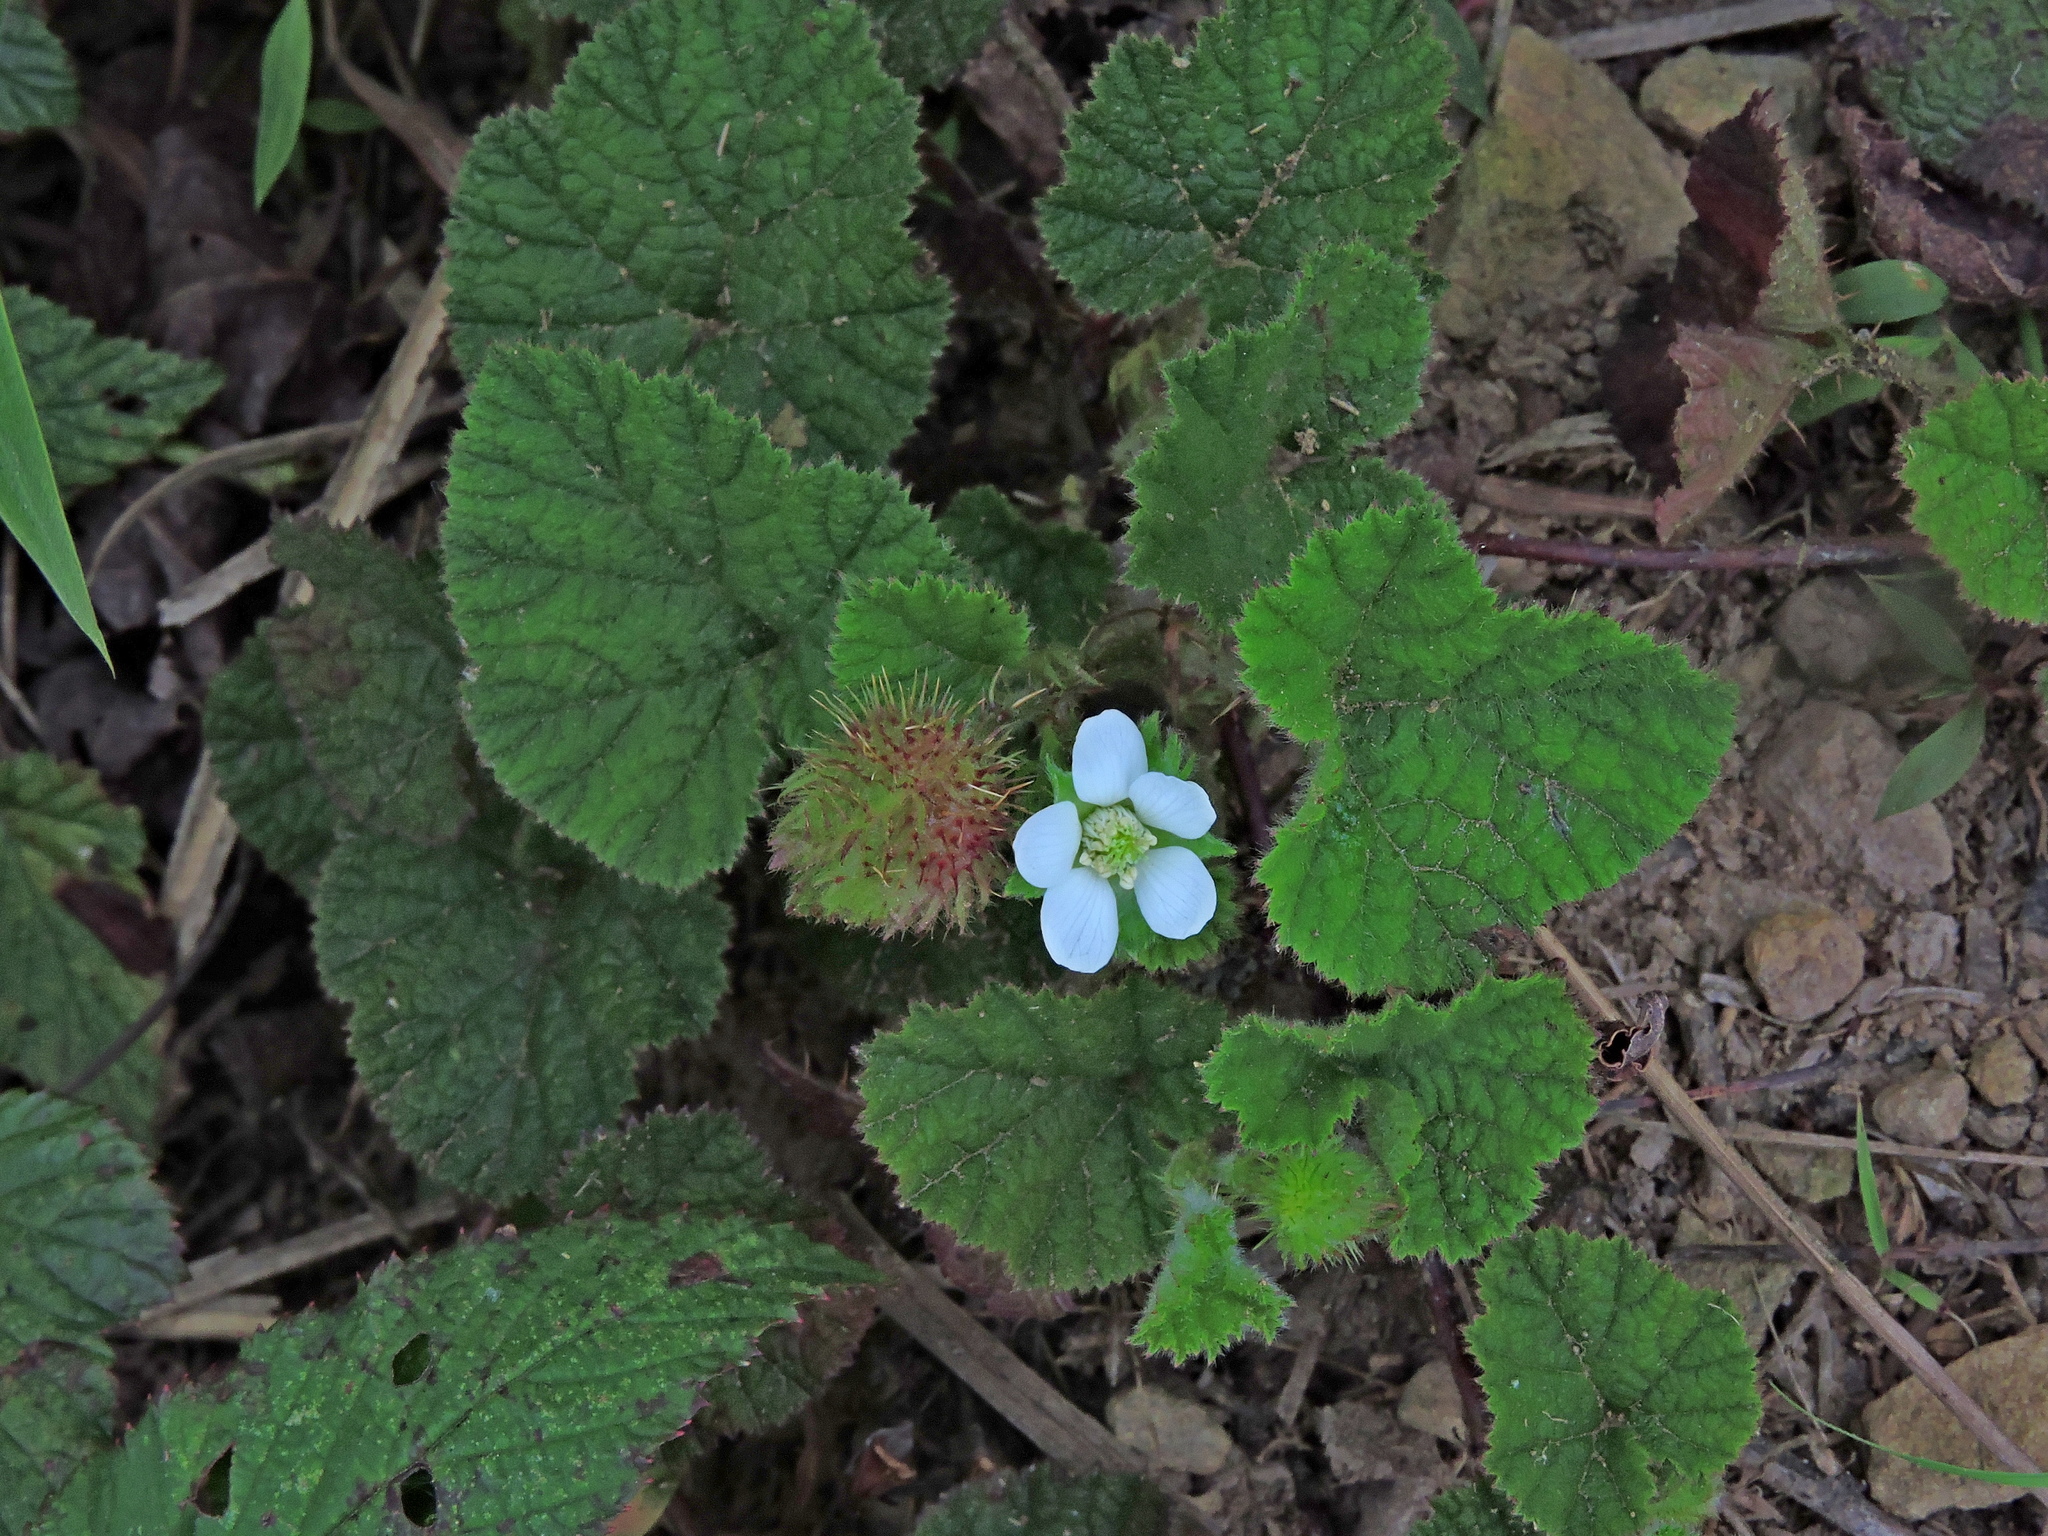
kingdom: Plantae
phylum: Tracheophyta
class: Magnoliopsida
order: Rosales
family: Rosaceae
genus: Rubus
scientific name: Rubus pectinellus
